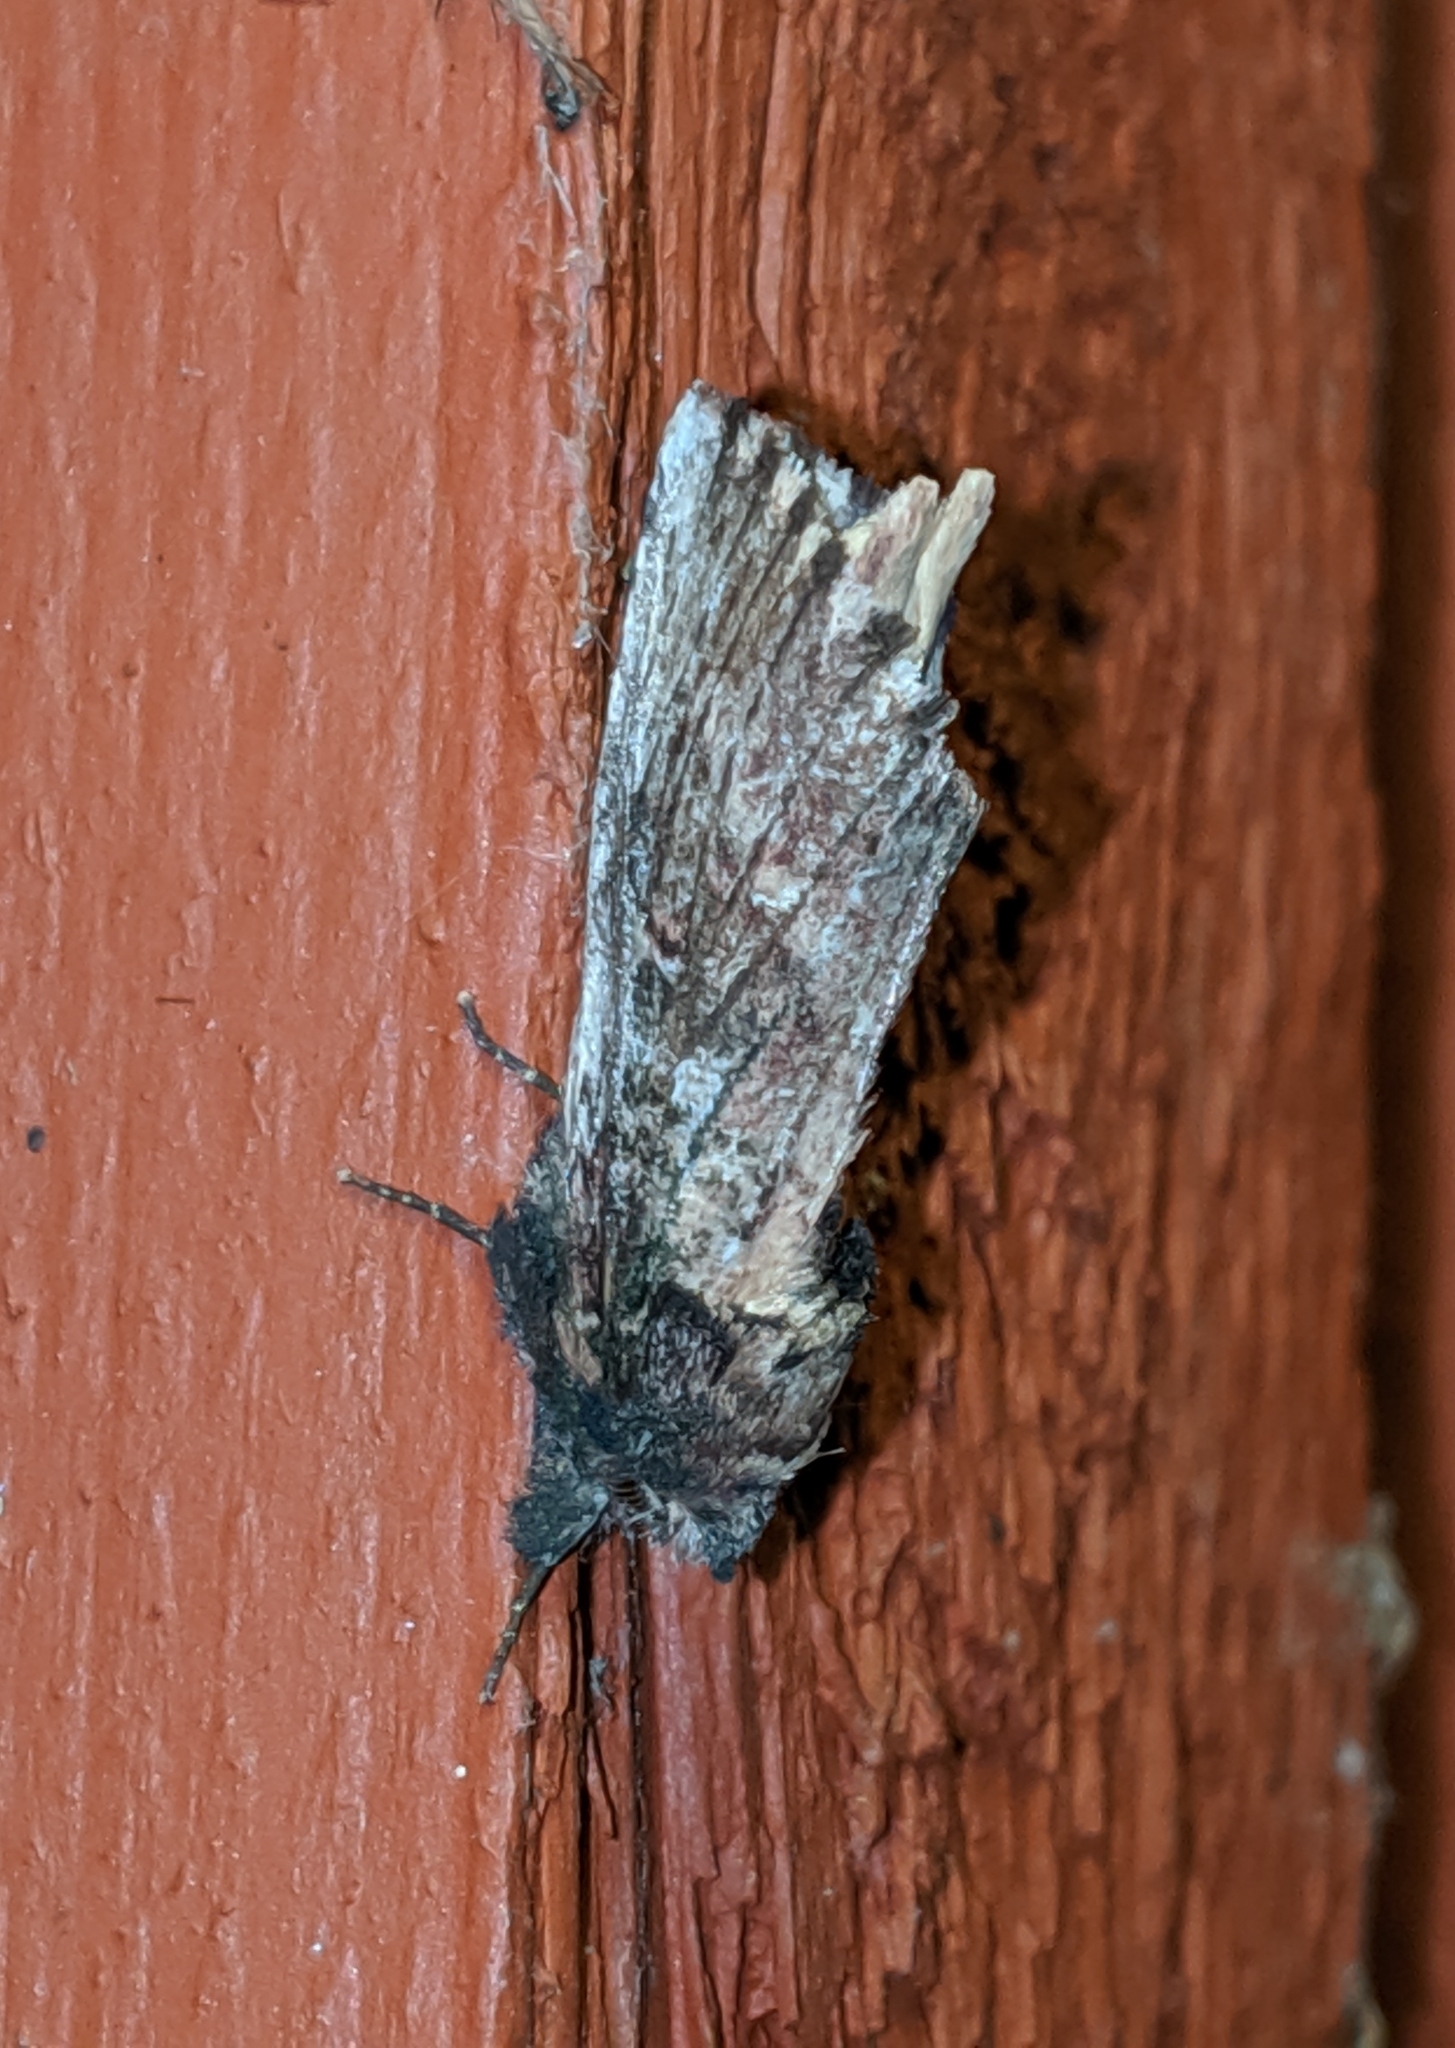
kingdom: Animalia
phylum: Arthropoda
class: Insecta
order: Lepidoptera
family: Notodontidae
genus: Schizura
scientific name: Schizura ipomaeae
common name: Morning-glory prominent
